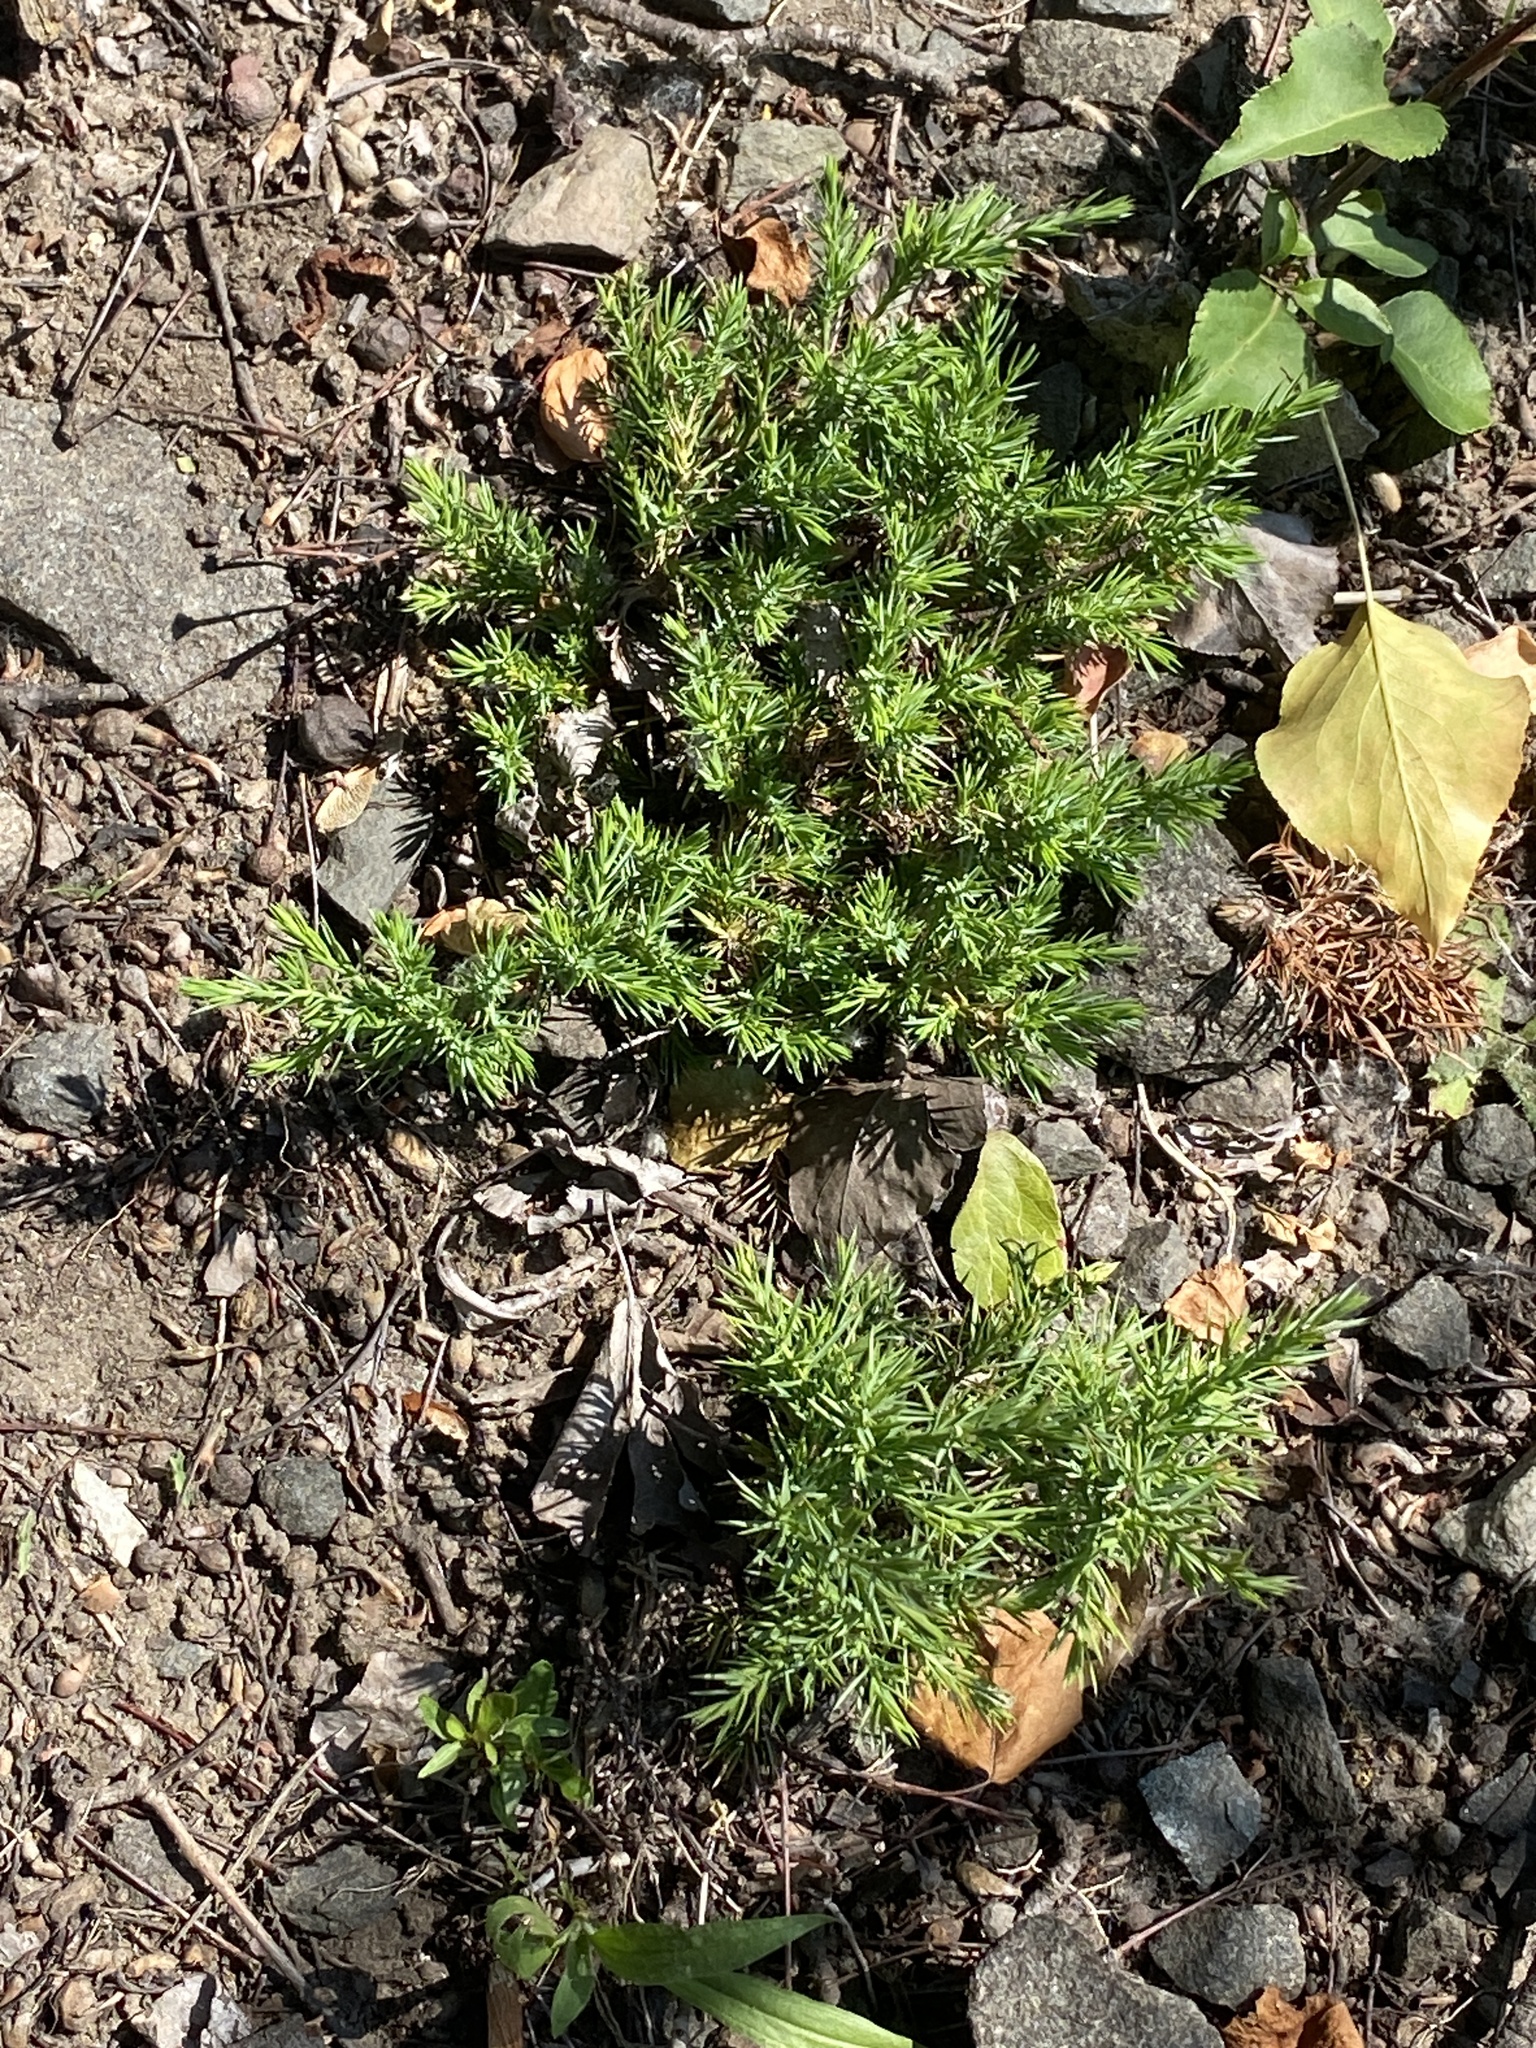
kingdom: Plantae
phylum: Tracheophyta
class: Pinopsida
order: Pinales
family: Cupressaceae
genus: Juniperus
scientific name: Juniperus virginiana
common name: Red juniper
